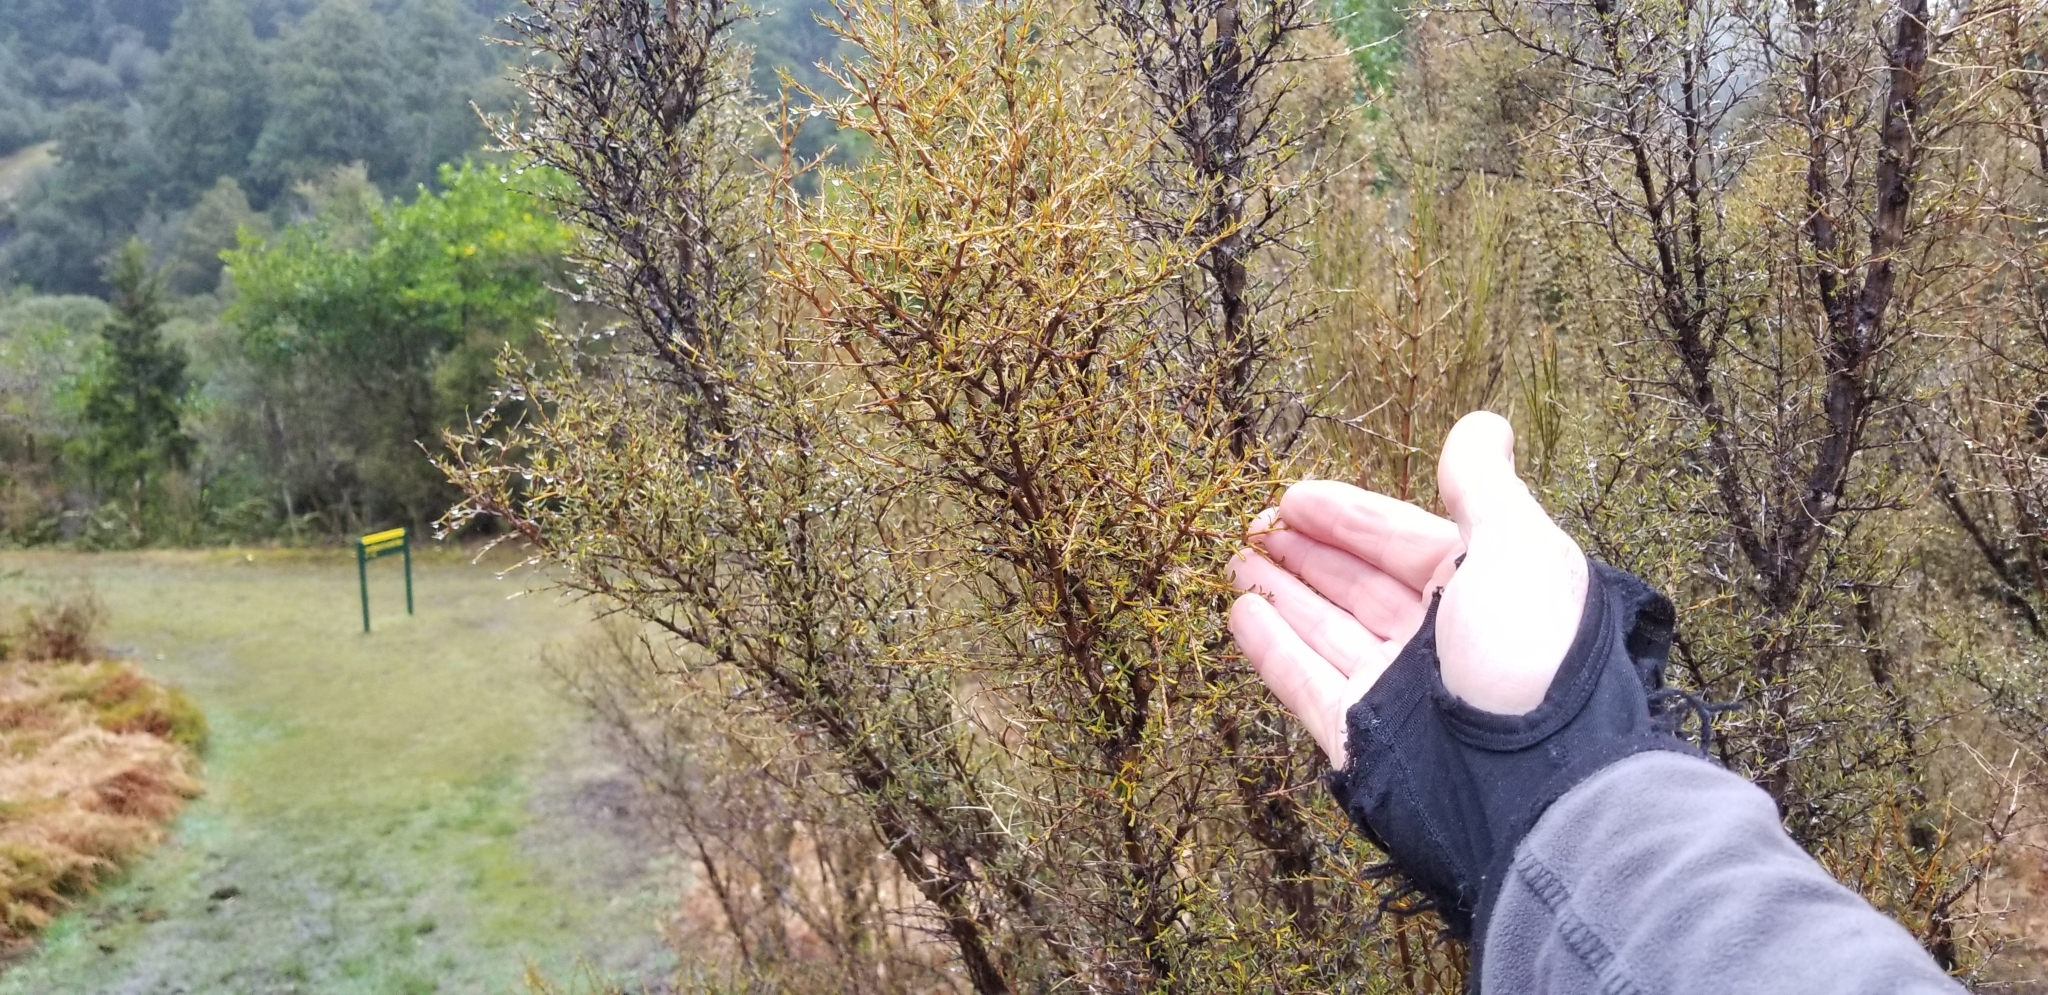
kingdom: Plantae
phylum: Tracheophyta
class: Magnoliopsida
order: Gentianales
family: Rubiaceae
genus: Coprosma
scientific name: Coprosma rugosa
